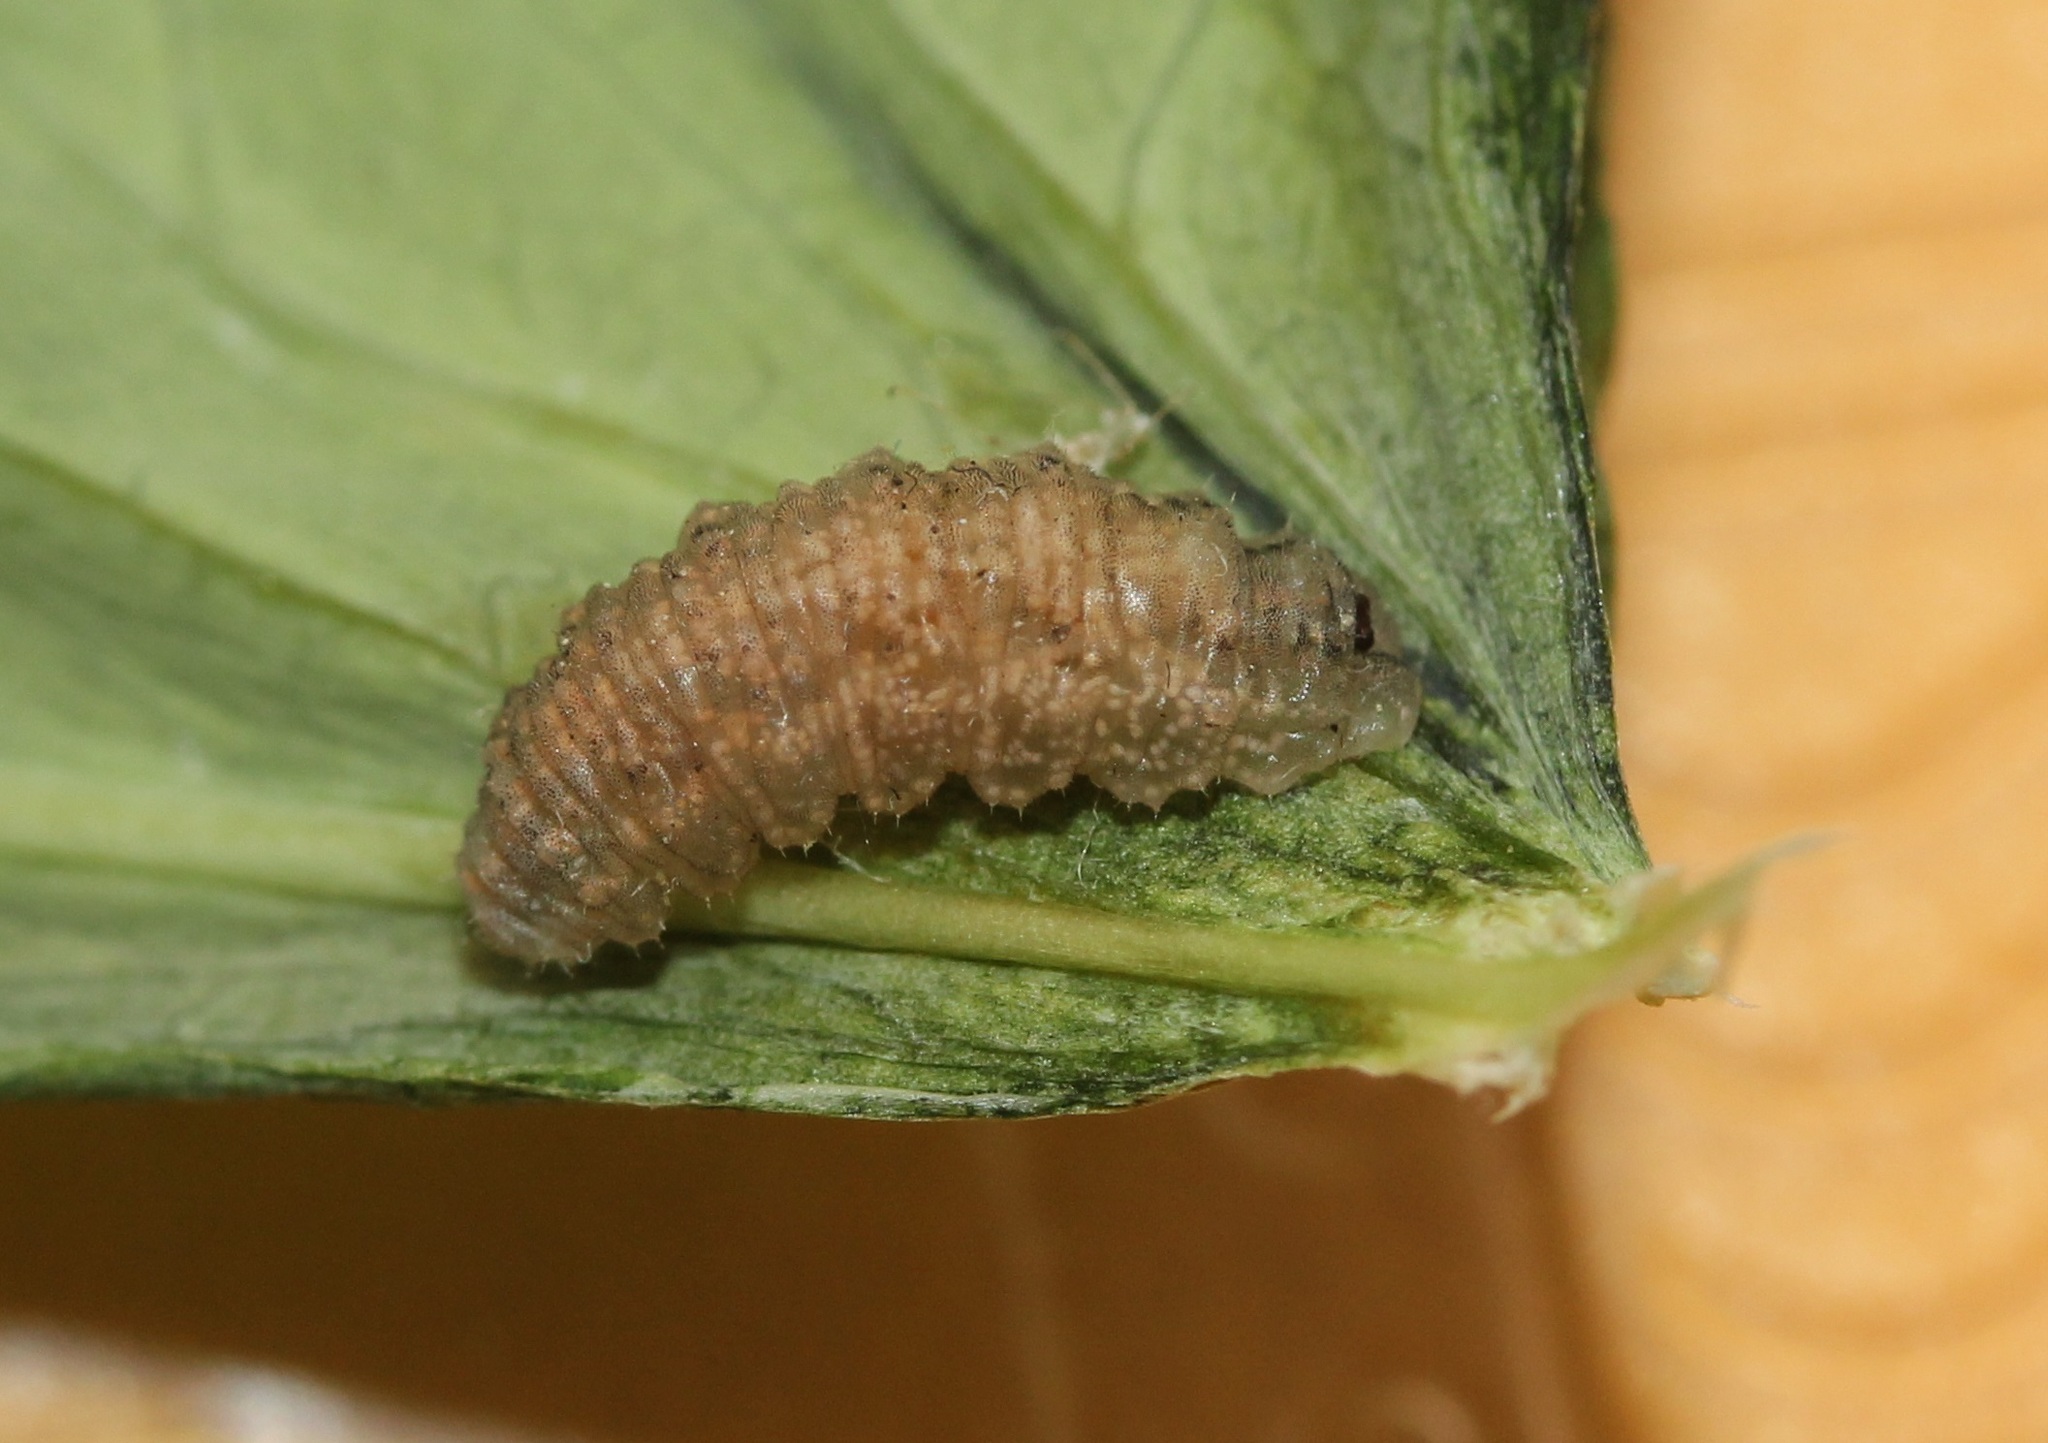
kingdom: Animalia
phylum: Arthropoda
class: Insecta
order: Diptera
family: Syrphidae
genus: Eupeodes
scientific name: Eupeodes americanus
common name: Long-tailed aphideater
